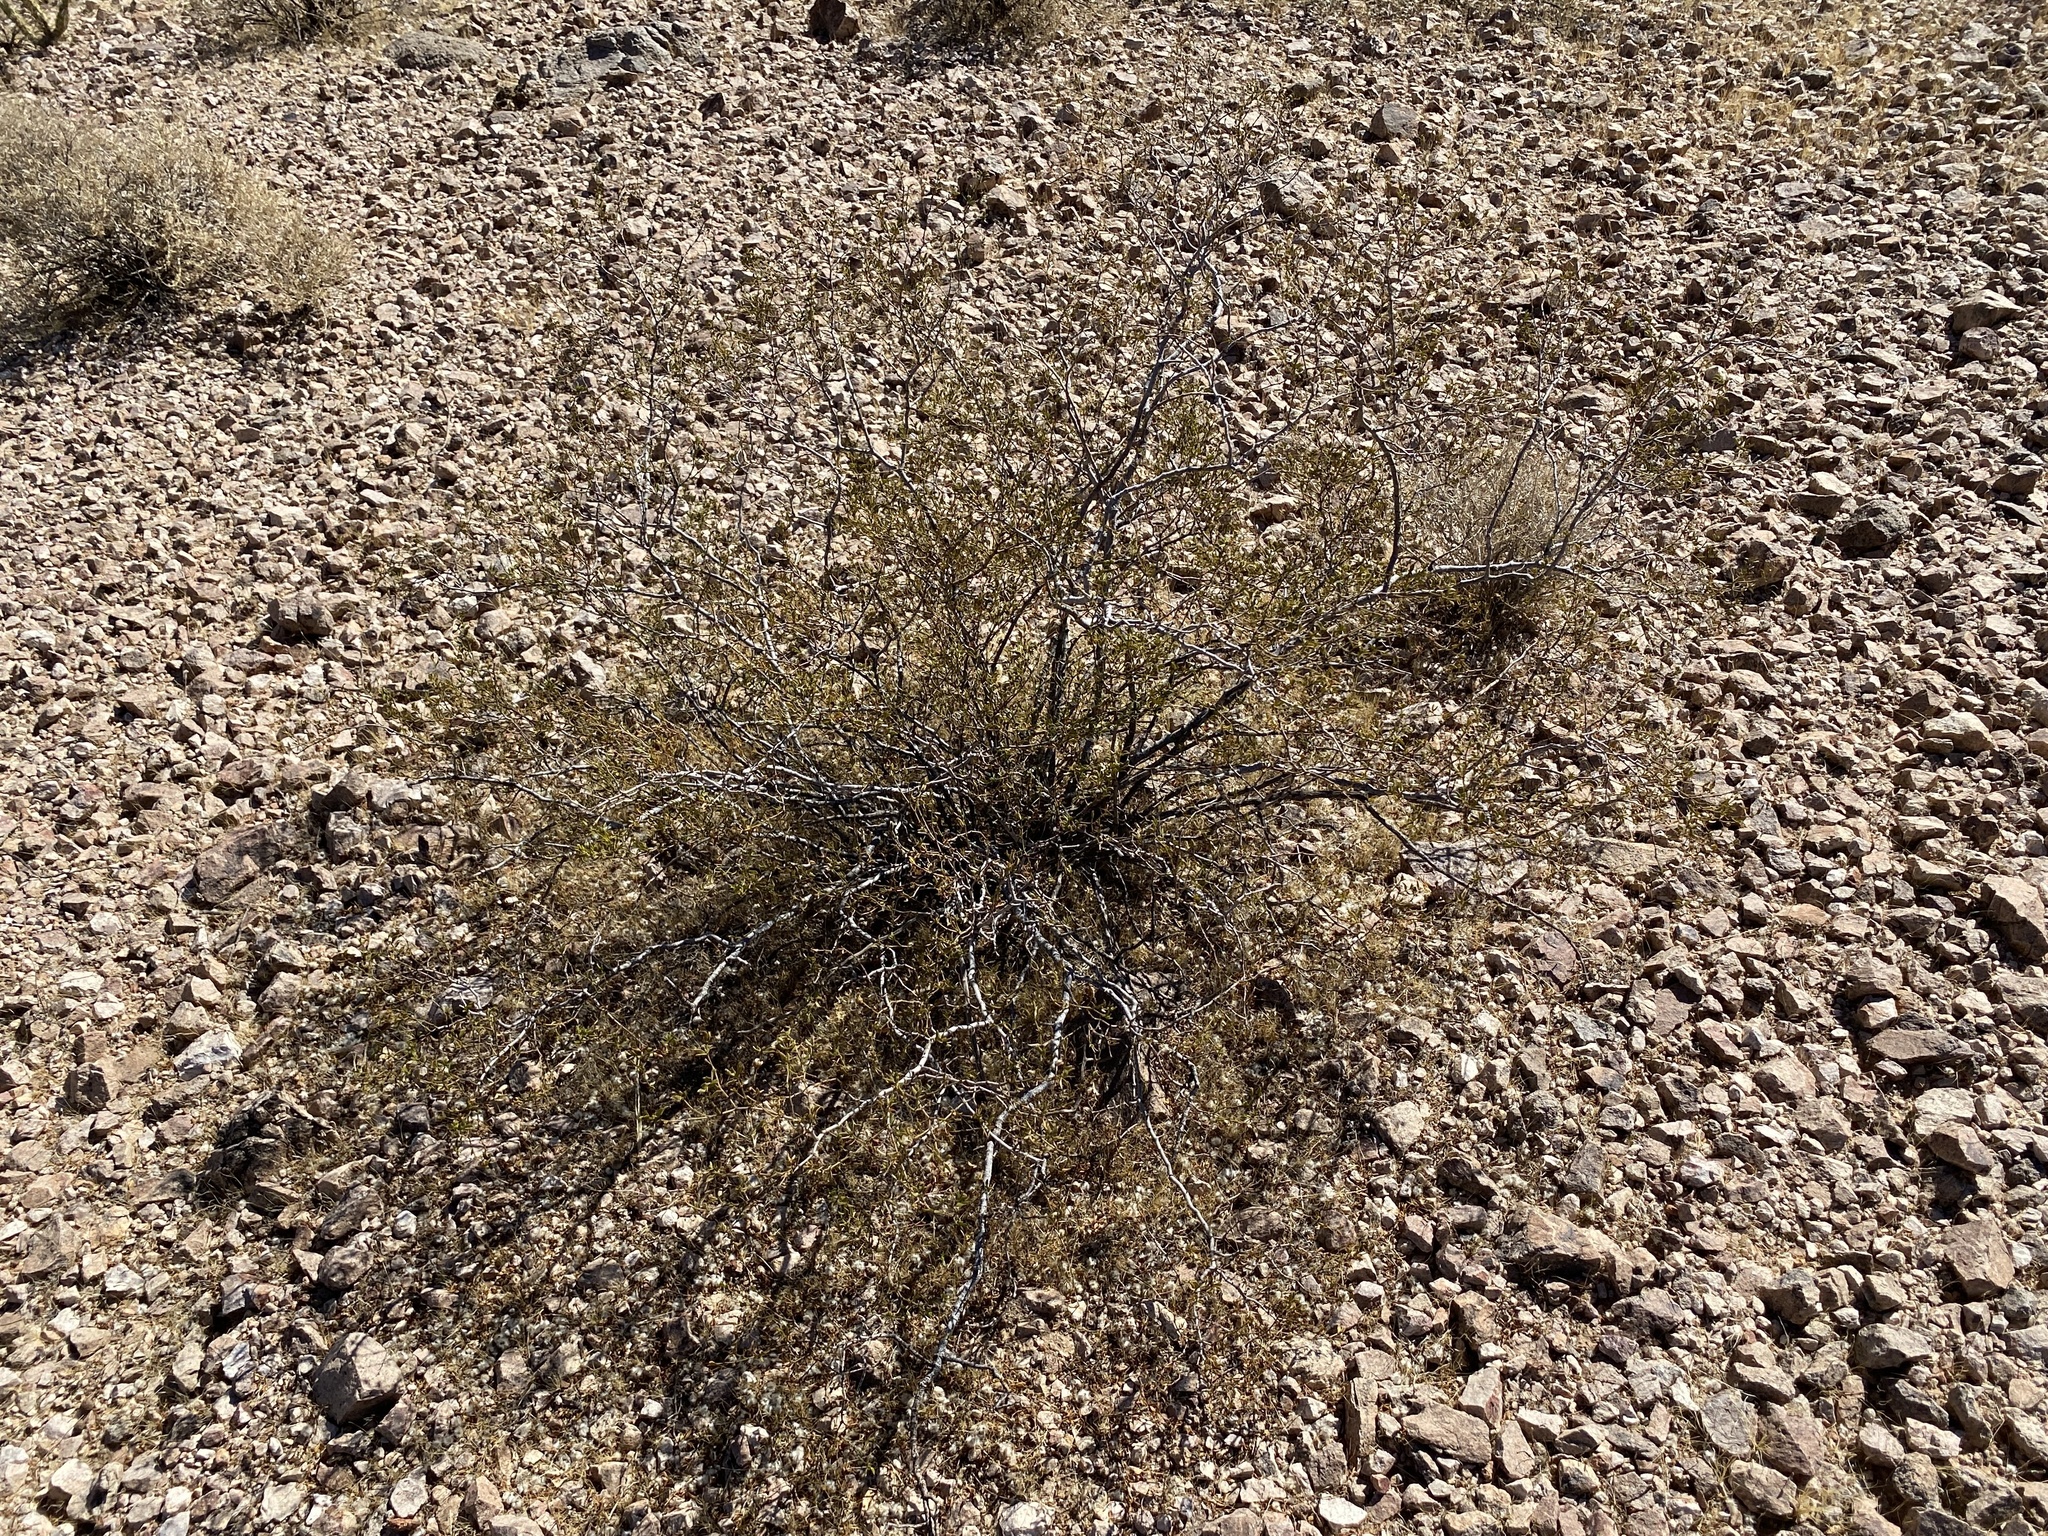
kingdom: Plantae
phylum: Tracheophyta
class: Magnoliopsida
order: Zygophyllales
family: Zygophyllaceae
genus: Larrea
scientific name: Larrea tridentata
